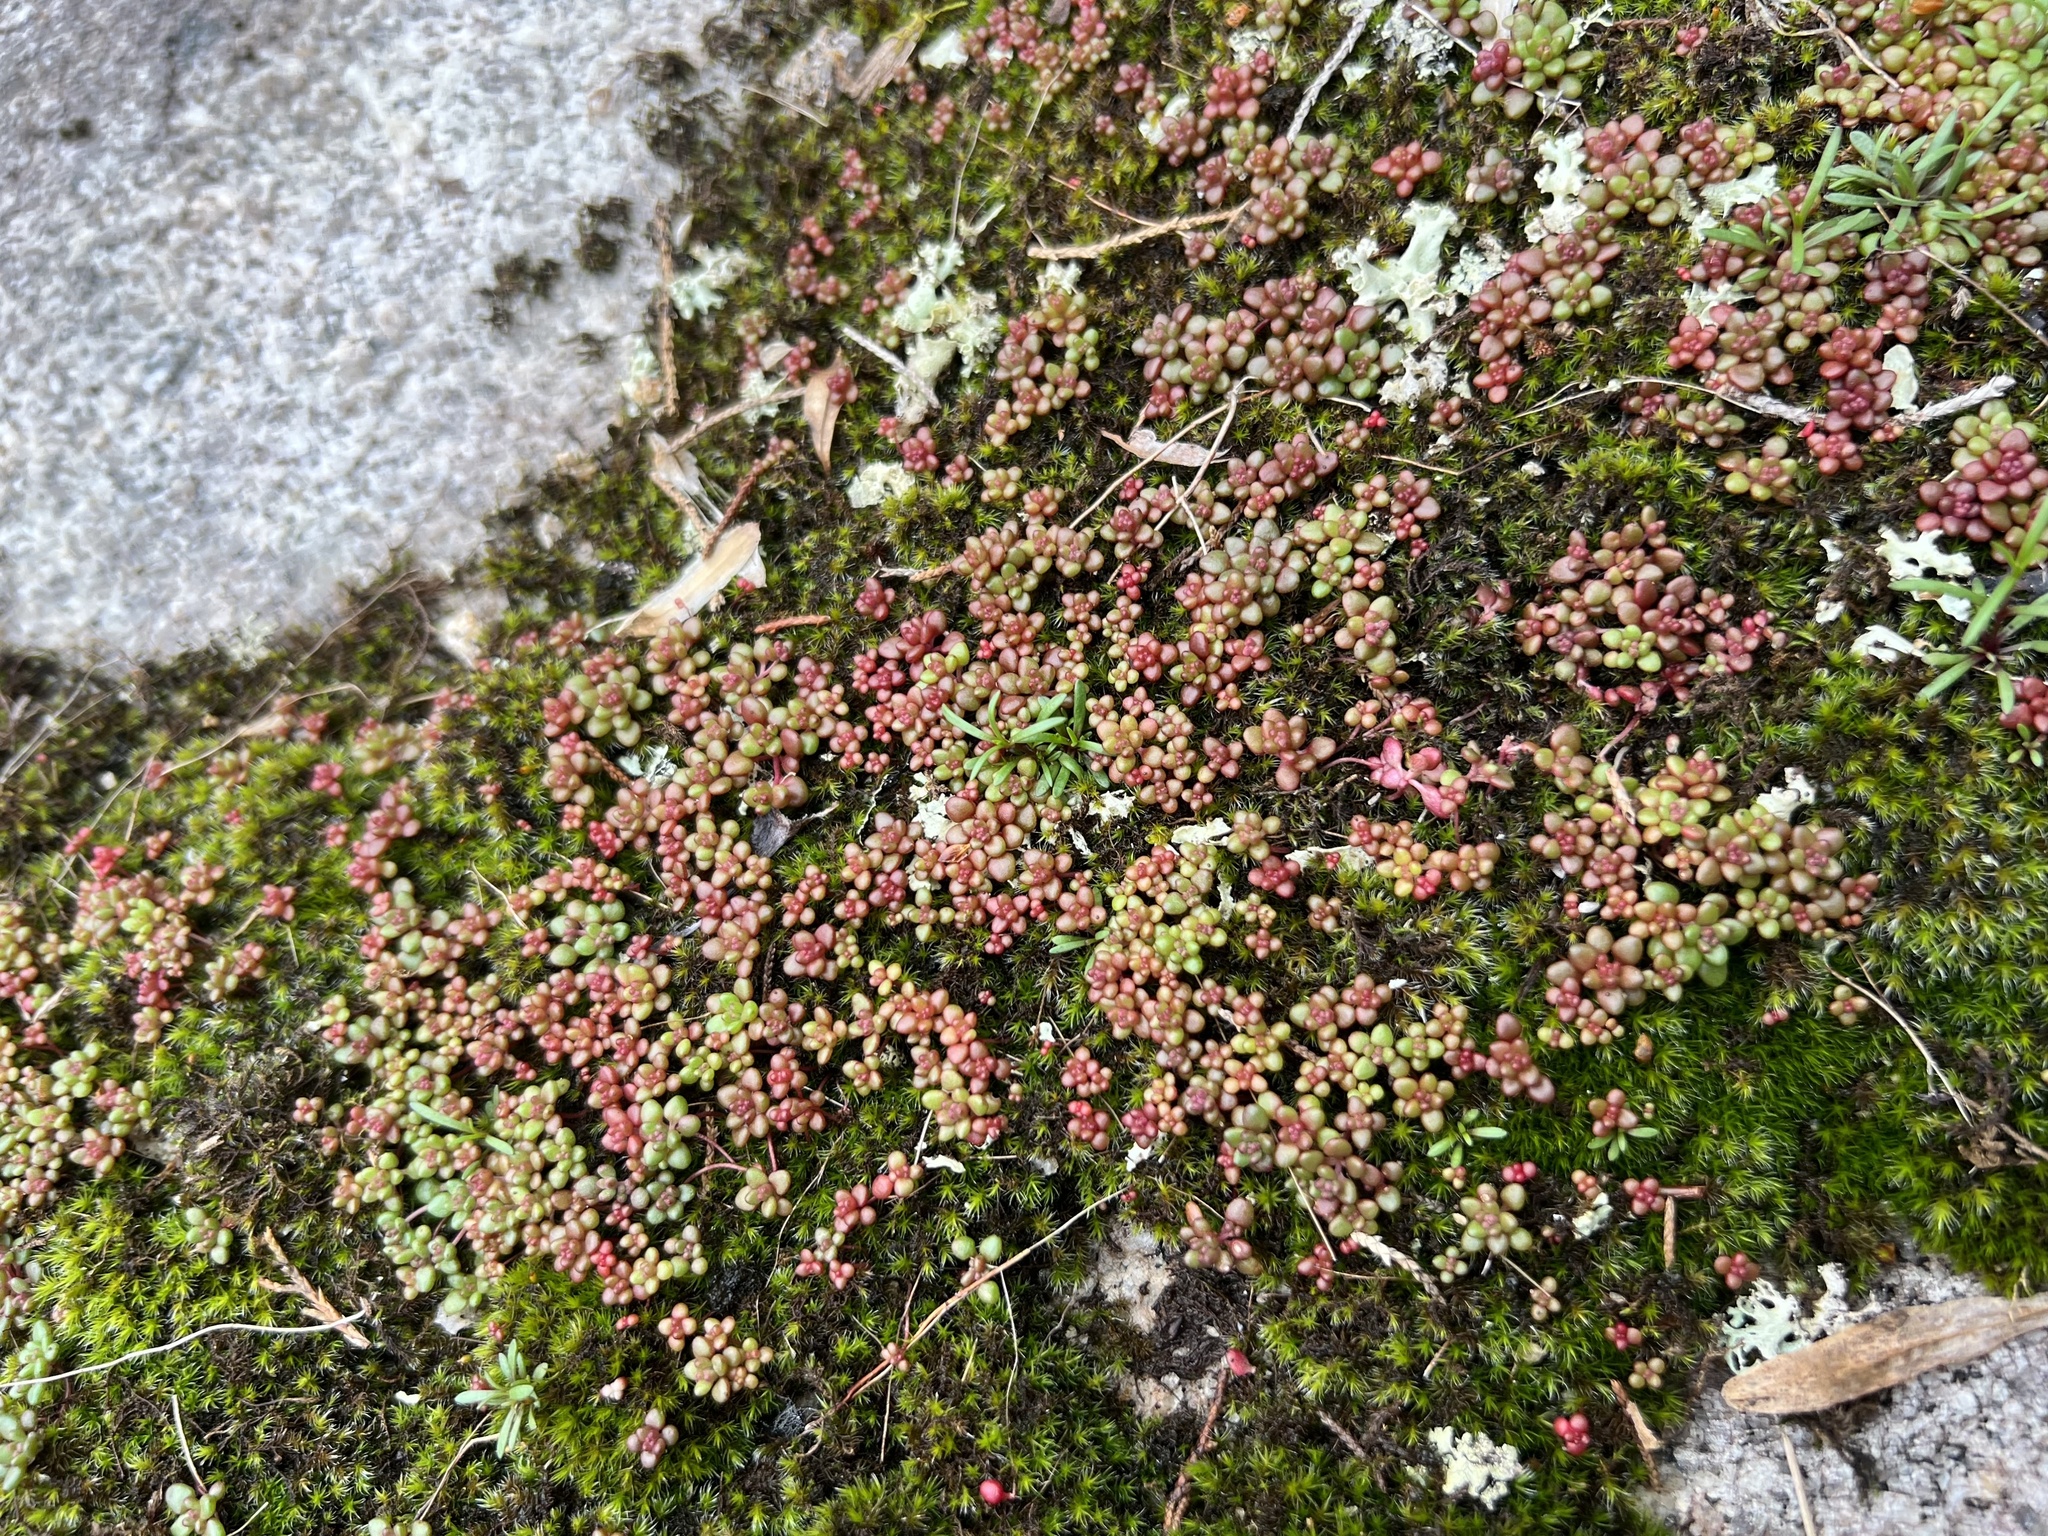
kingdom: Plantae
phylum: Tracheophyta
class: Magnoliopsida
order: Saxifragales
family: Crassulaceae
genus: Sedum
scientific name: Sedum smallii
